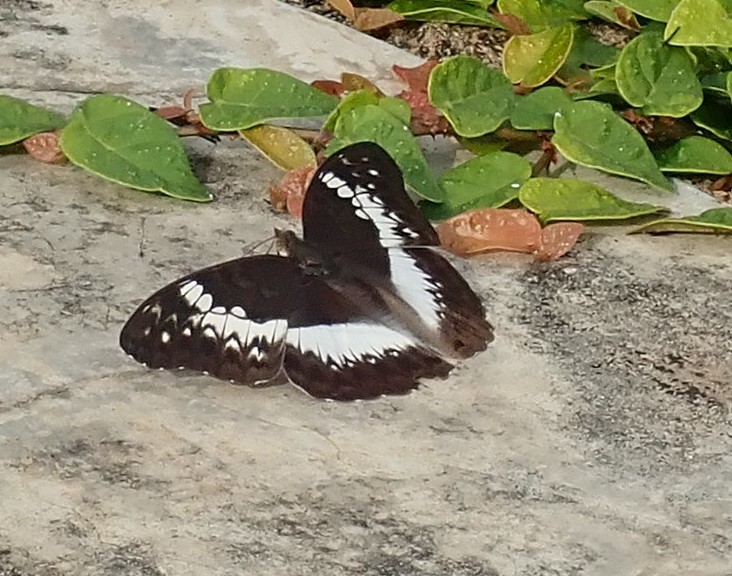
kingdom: Animalia
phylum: Arthropoda
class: Insecta
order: Lepidoptera
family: Nymphalidae
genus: Cymothoe
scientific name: Cymothoe coranus
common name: Blonde glider
